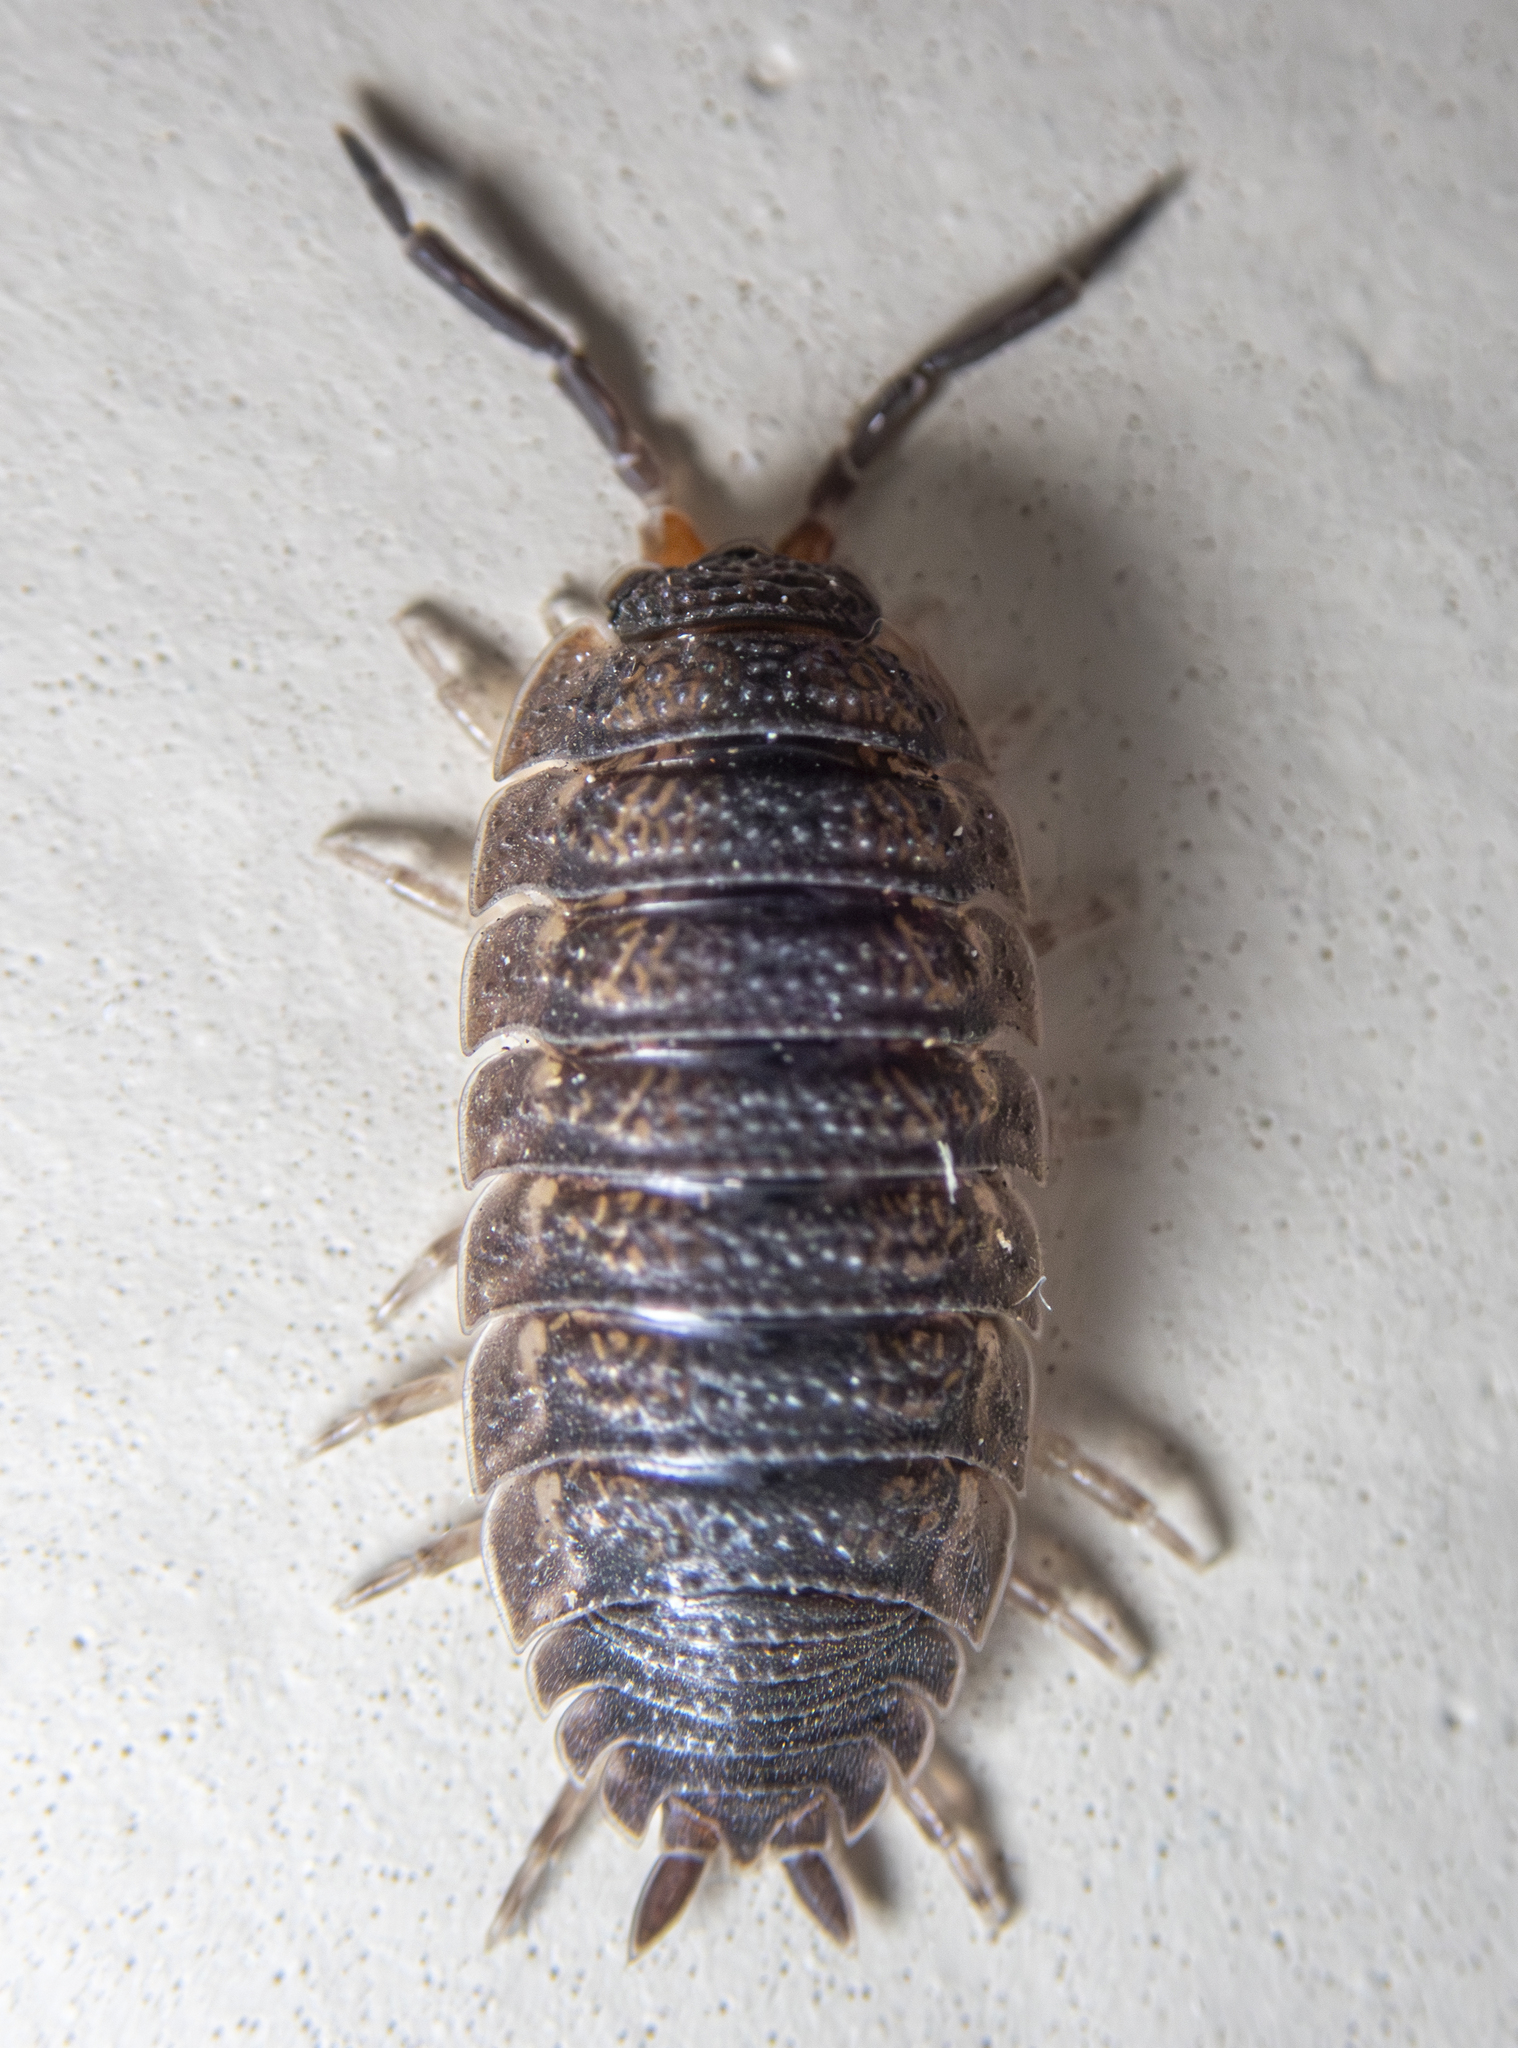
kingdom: Animalia
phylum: Arthropoda
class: Malacostraca
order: Isopoda
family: Porcellionidae
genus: Porcellio
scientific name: Porcellio scaber
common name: Common rough woodlouse
